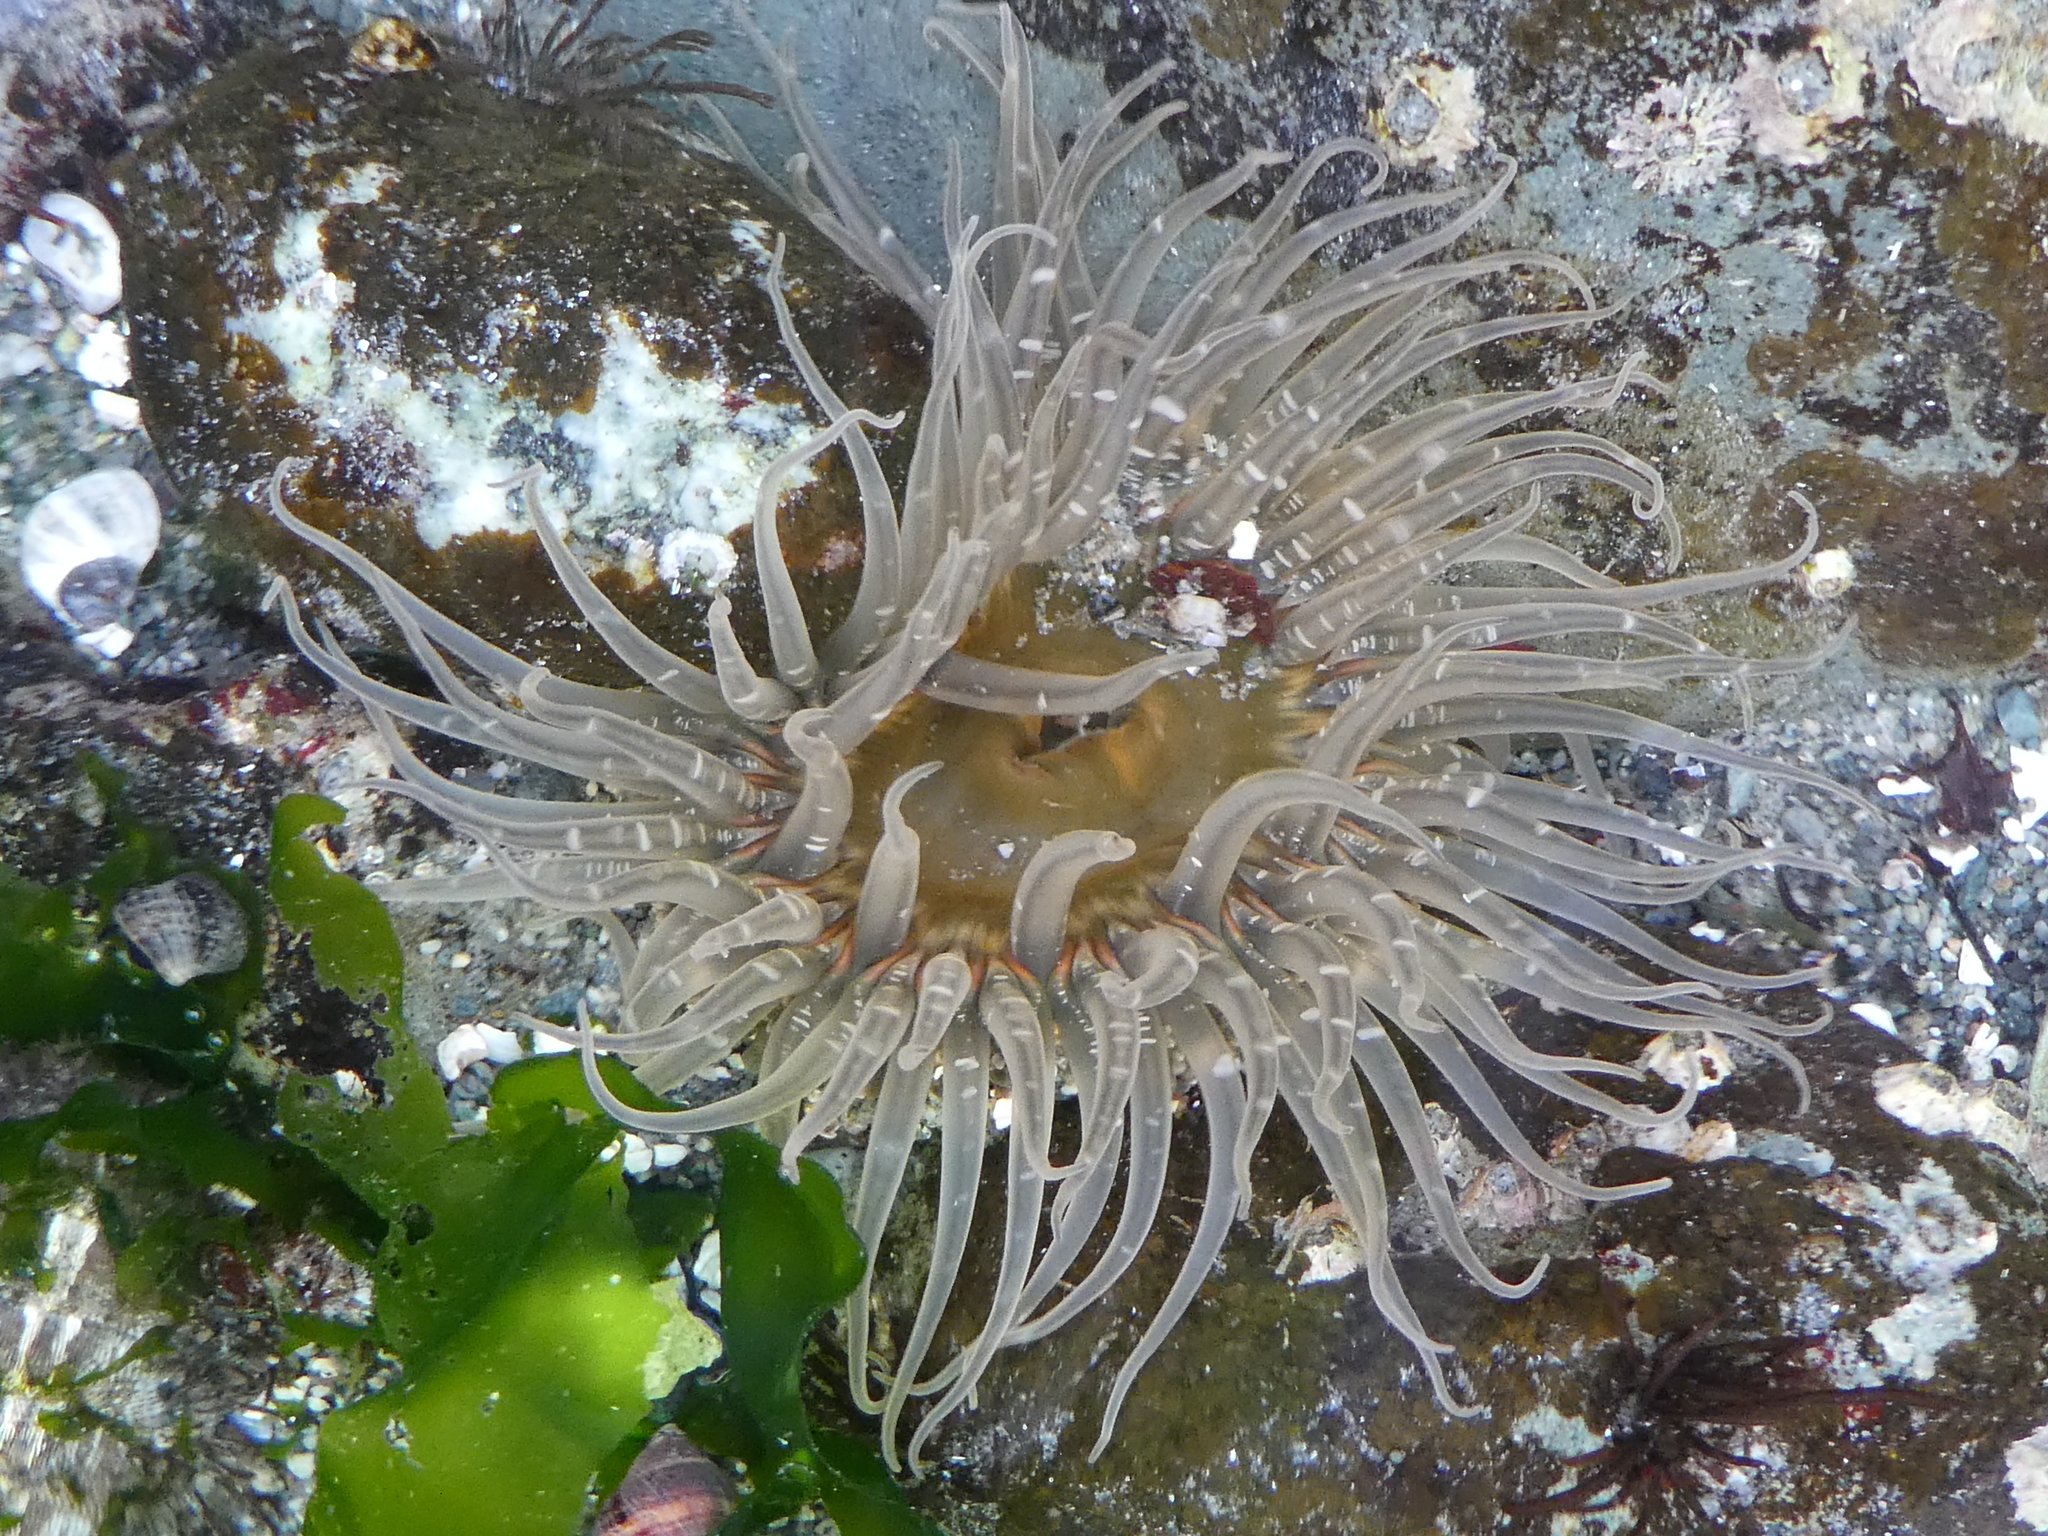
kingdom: Animalia
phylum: Cnidaria
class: Anthozoa
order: Actiniaria
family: Actiniidae
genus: Anthopleura
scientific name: Anthopleura artemisia
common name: Buried sea anemone
